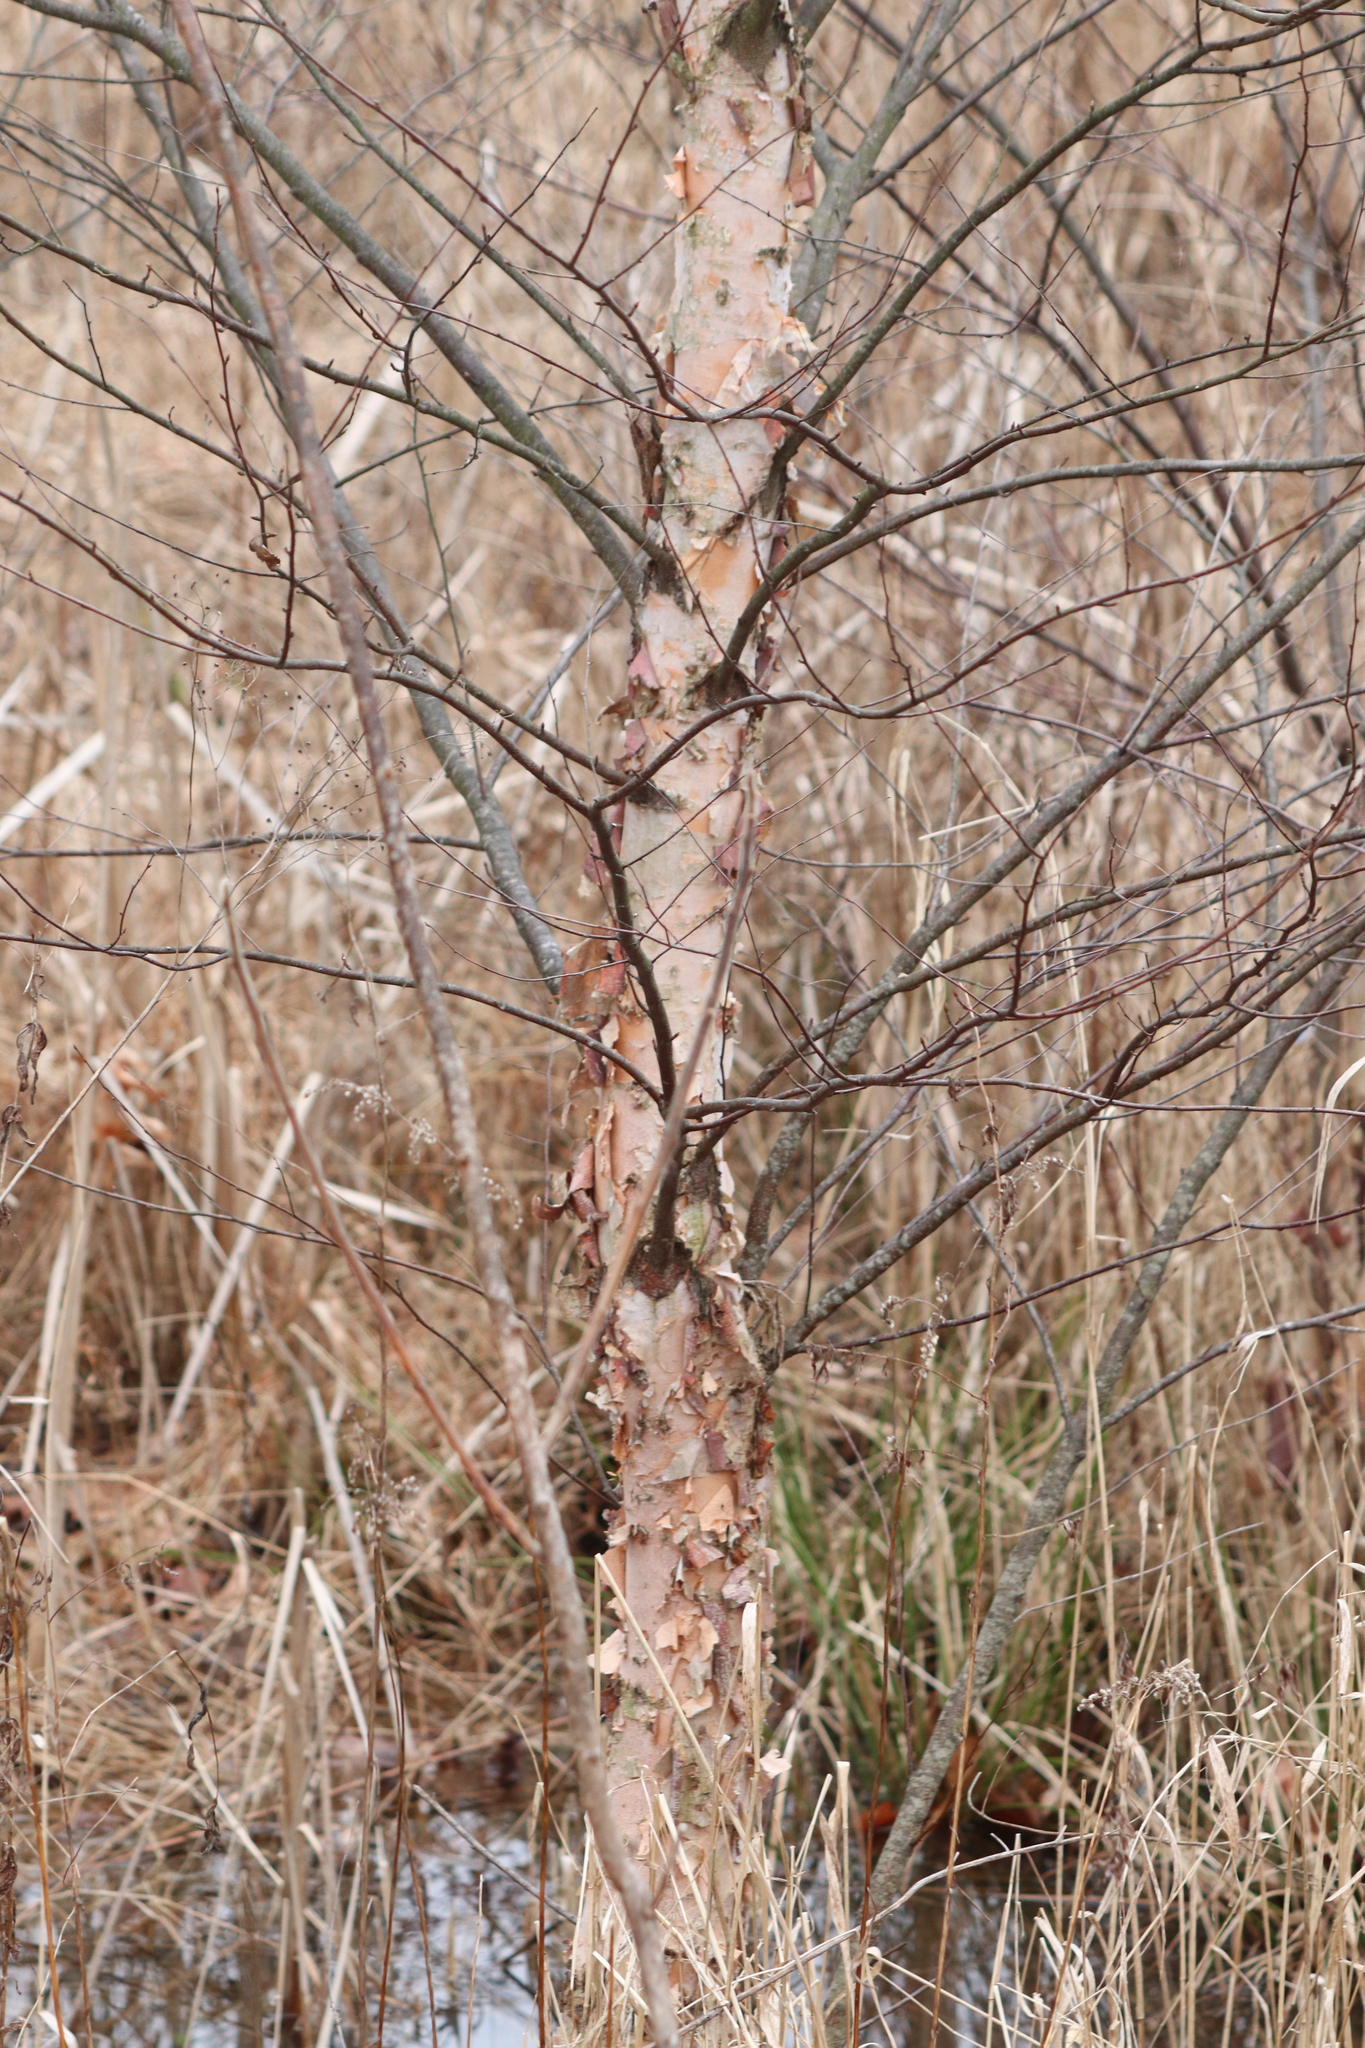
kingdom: Plantae
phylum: Tracheophyta
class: Magnoliopsida
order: Fagales
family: Betulaceae
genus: Betula
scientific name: Betula nigra
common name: Black birch
